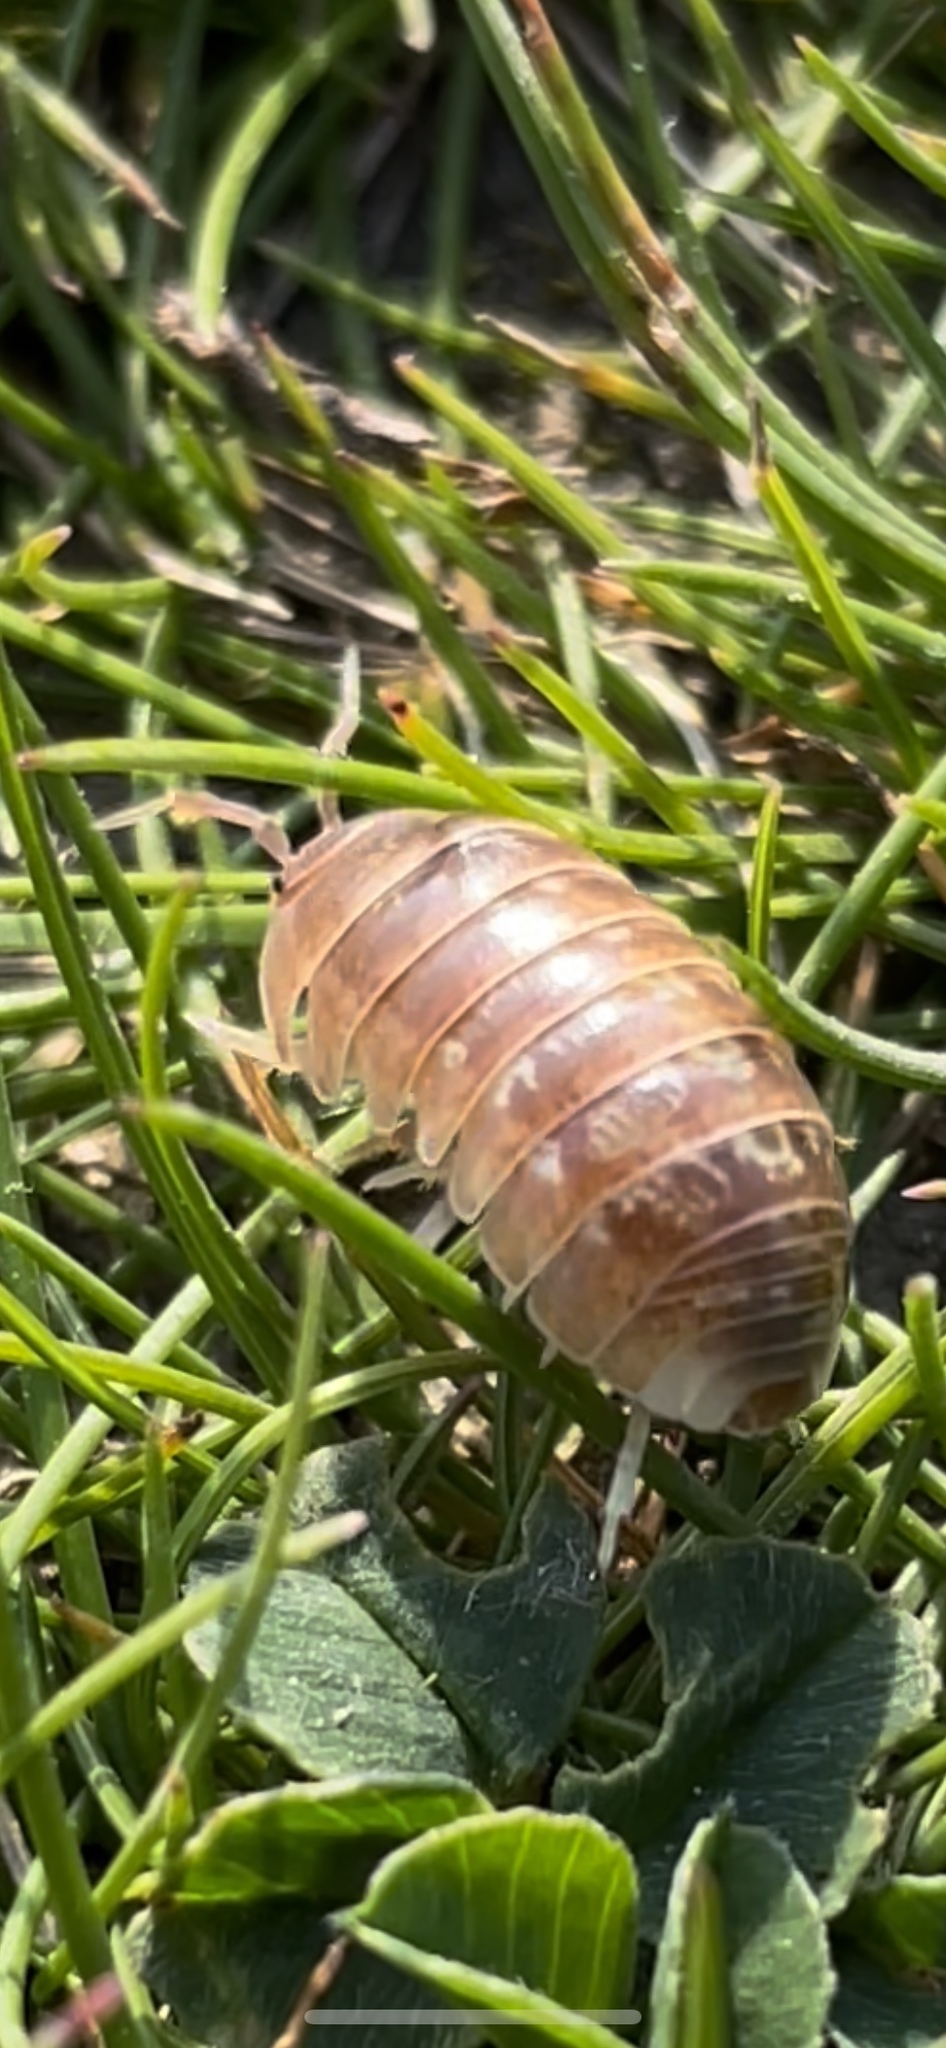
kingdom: Animalia
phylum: Arthropoda
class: Malacostraca
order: Isopoda
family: Armadillidiidae
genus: Armadillidium
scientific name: Armadillidium
